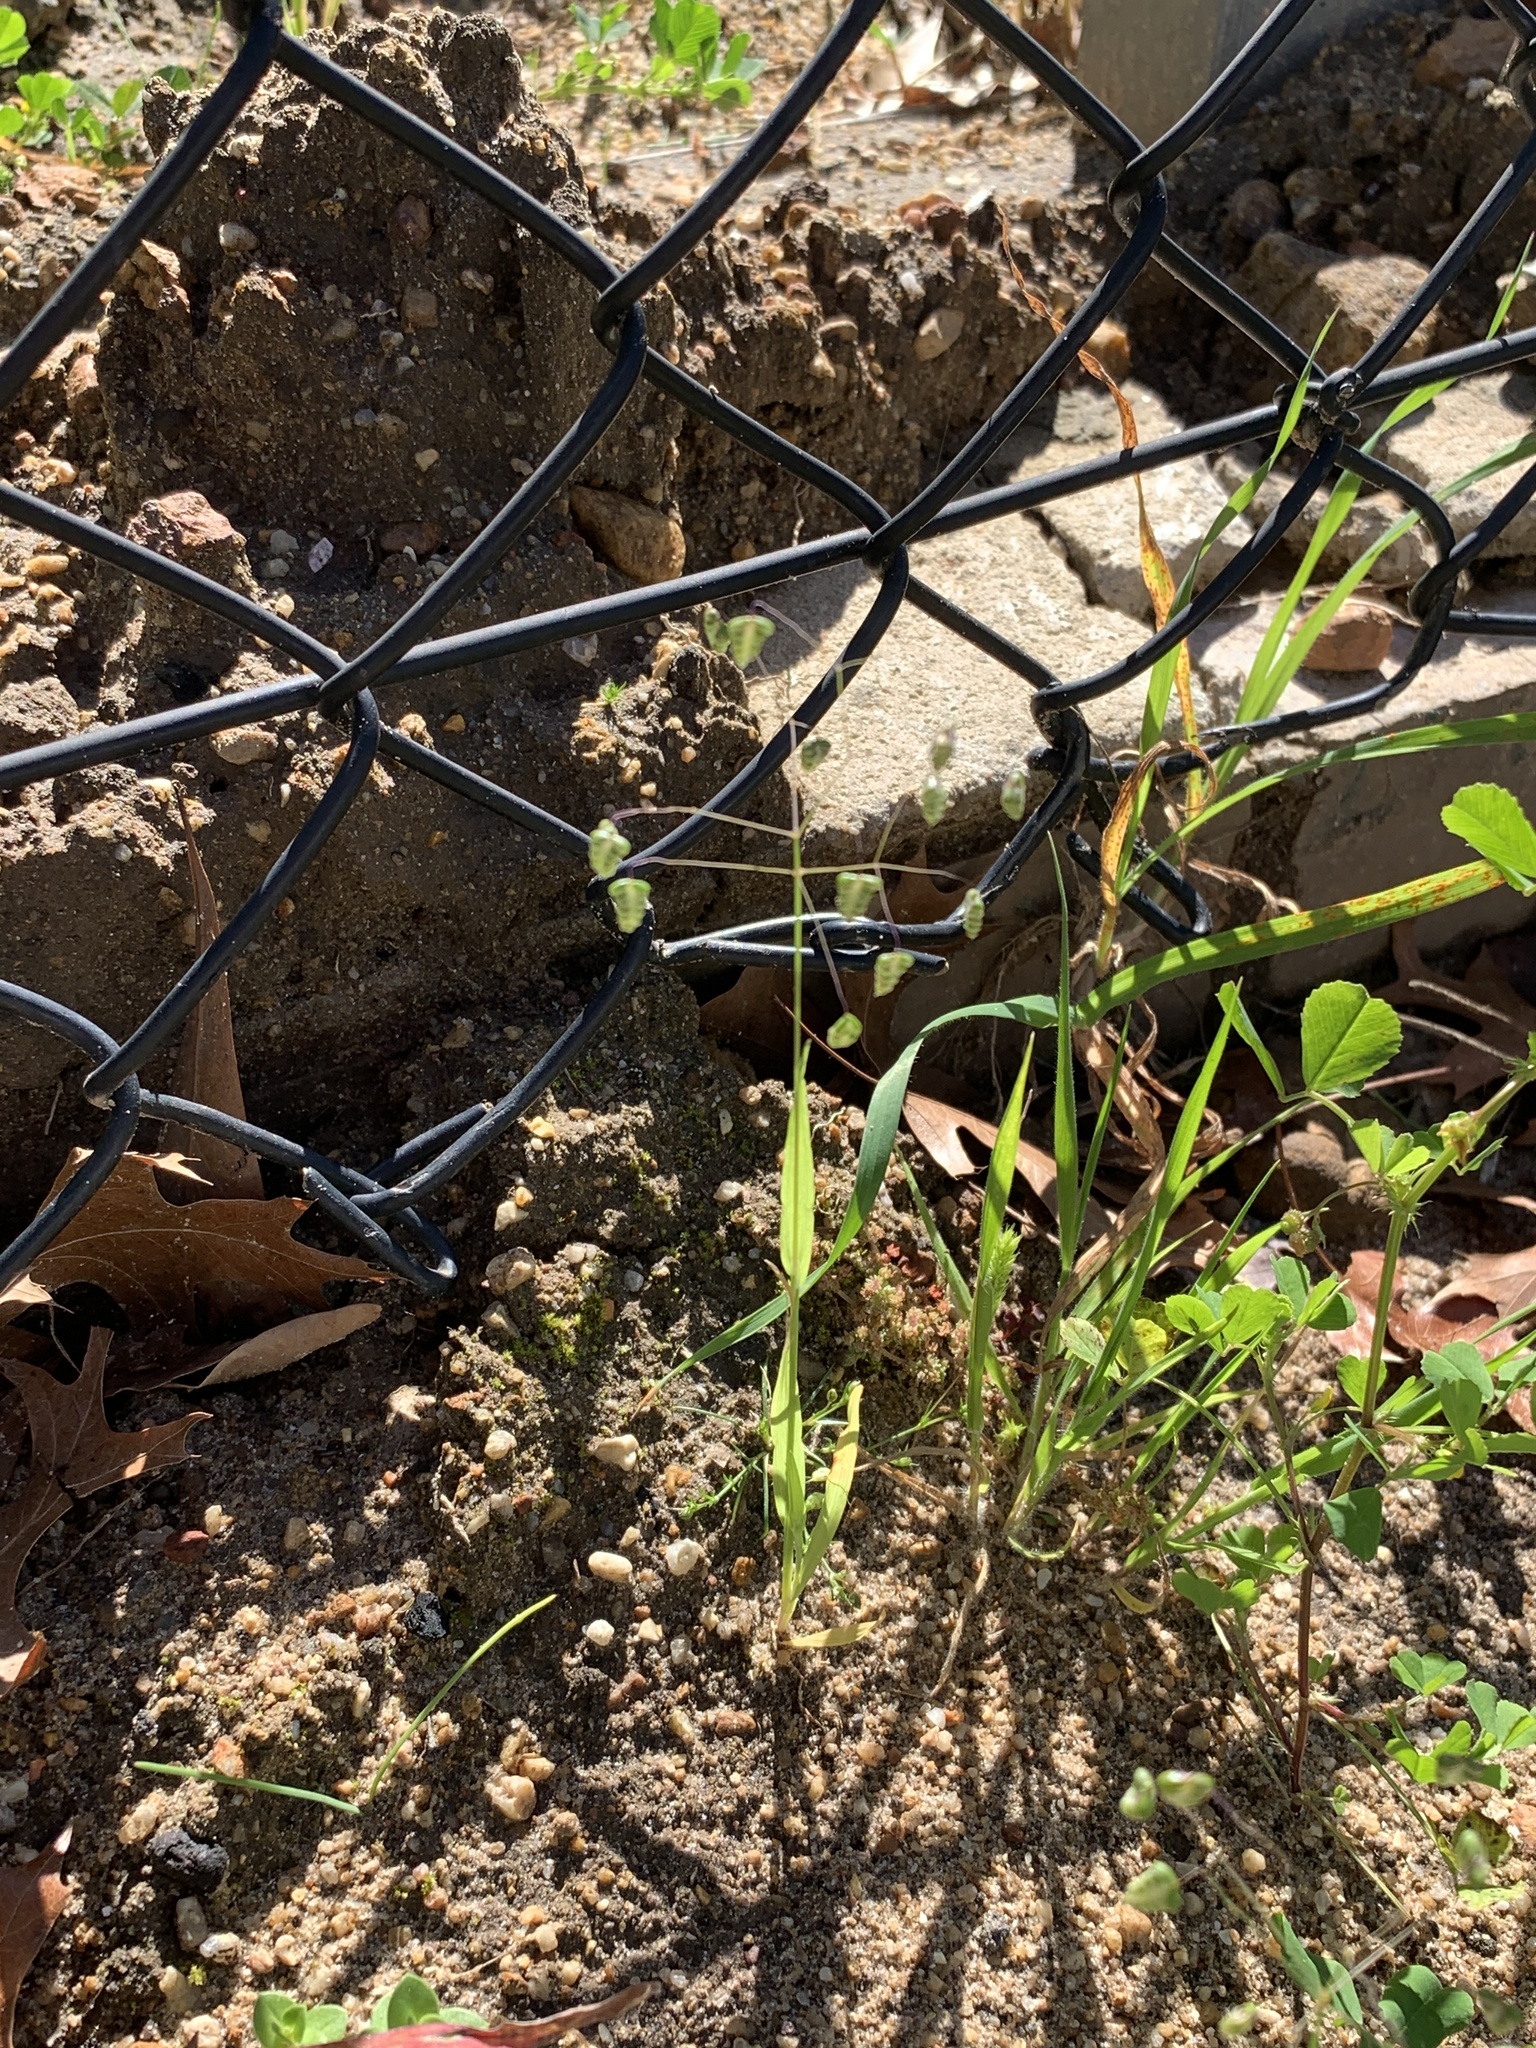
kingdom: Plantae
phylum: Tracheophyta
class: Liliopsida
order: Poales
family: Poaceae
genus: Briza
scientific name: Briza minor
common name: Lesser quaking-grass
